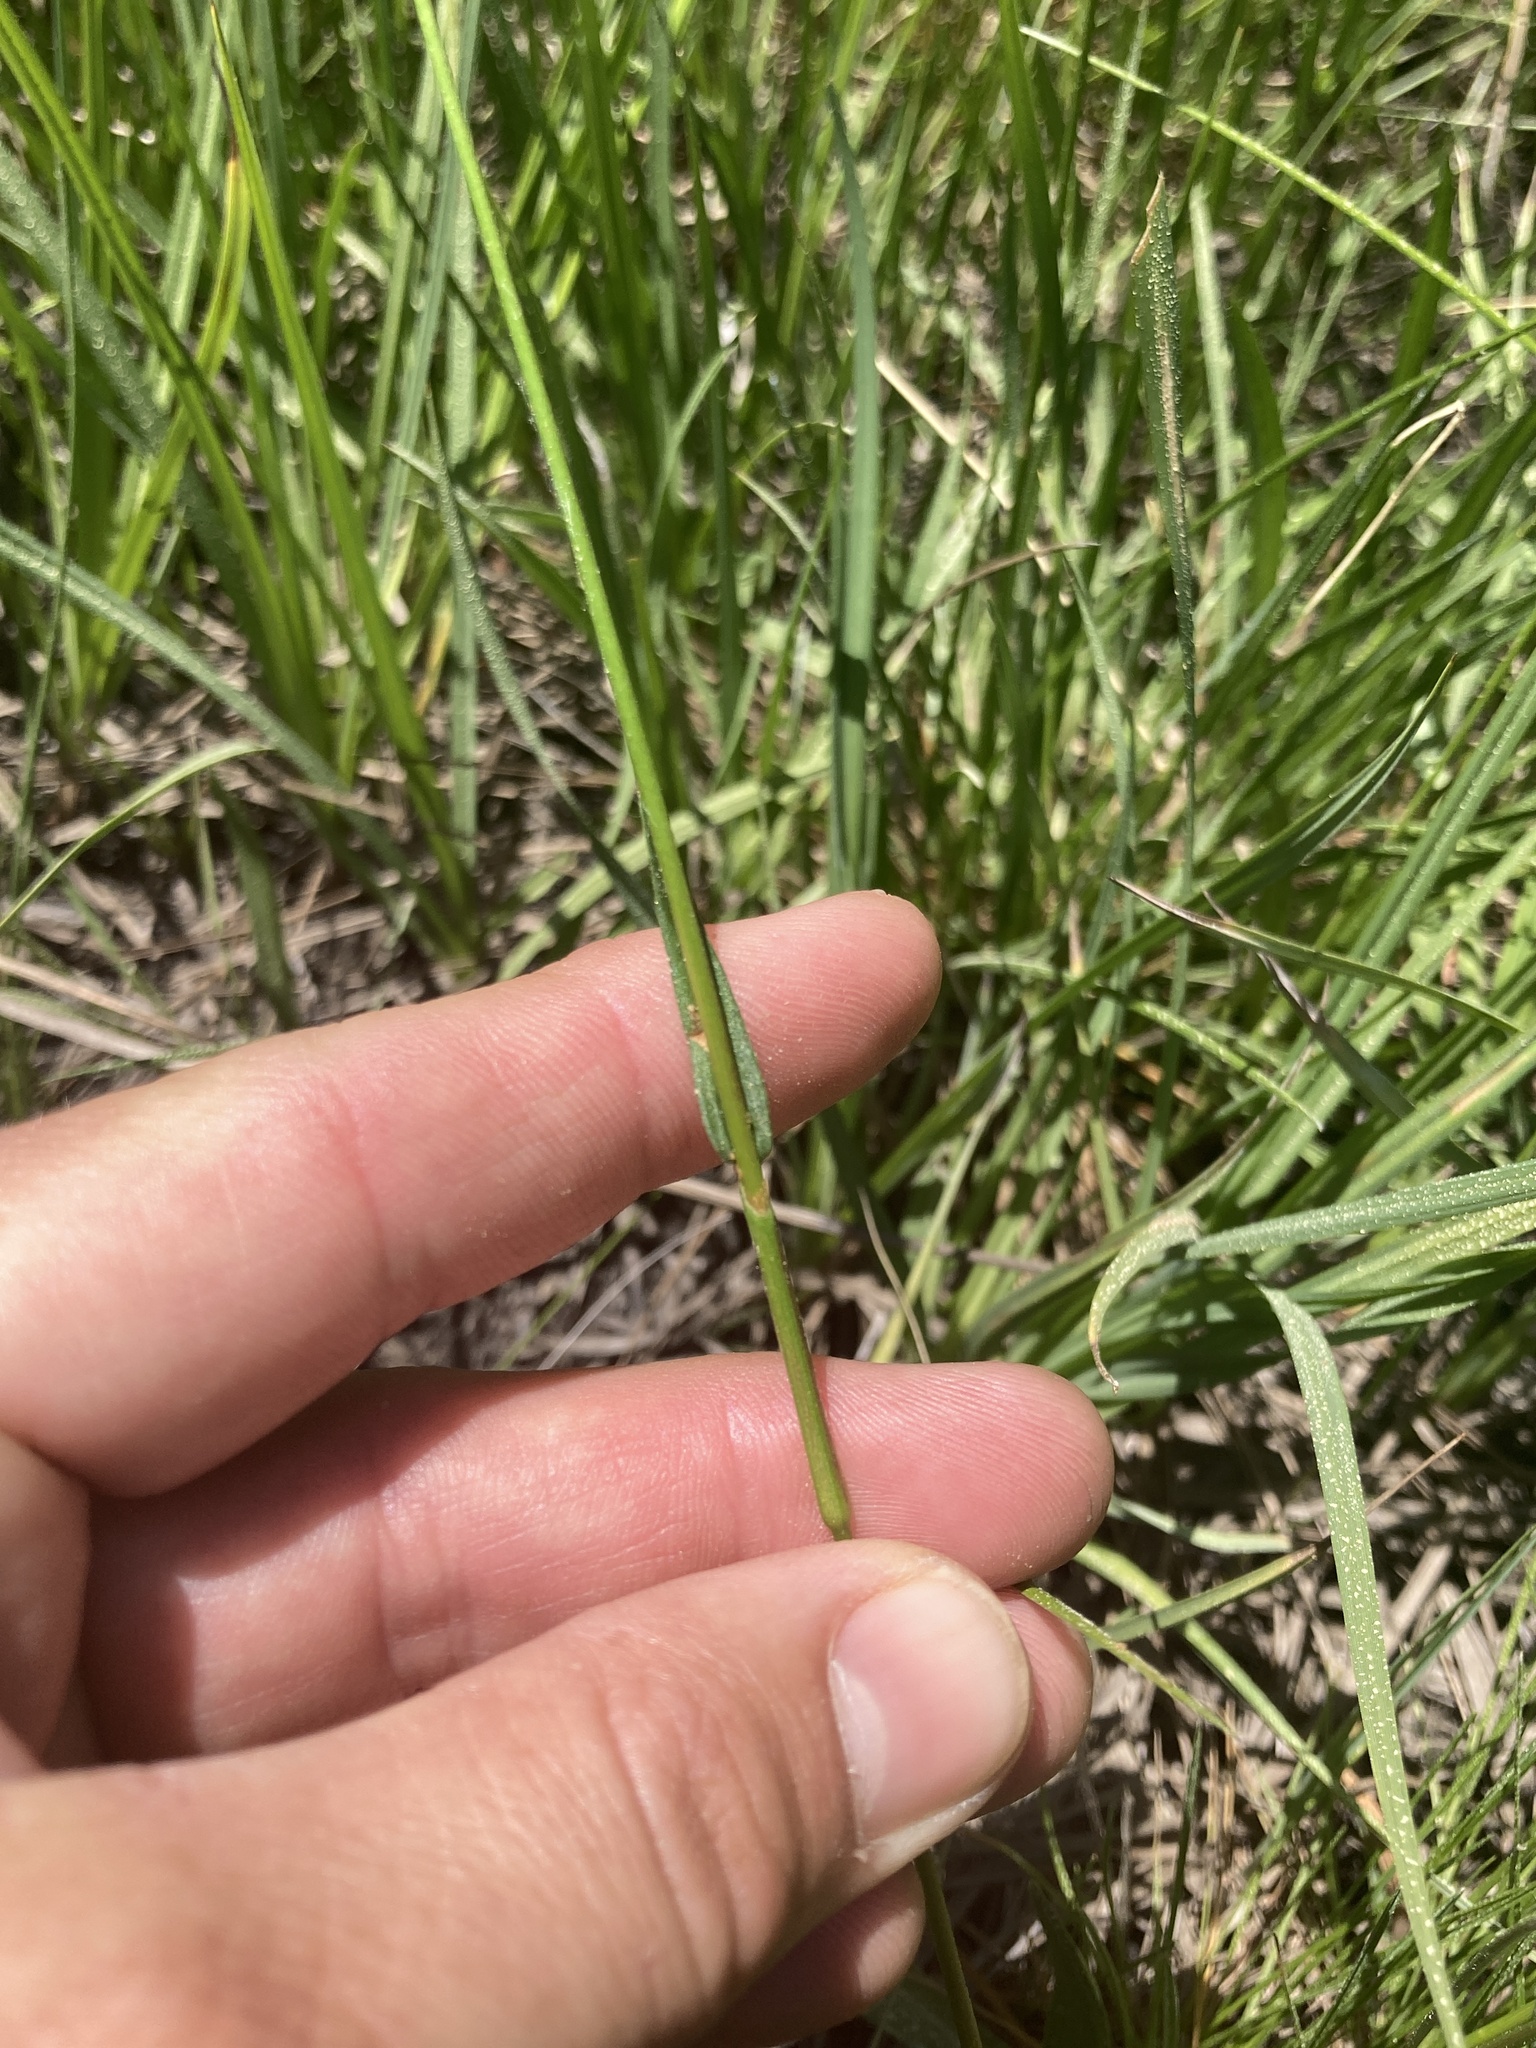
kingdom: Plantae
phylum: Tracheophyta
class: Magnoliopsida
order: Caryophyllales
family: Polygonaceae
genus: Bistorta
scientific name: Bistorta bistortoides
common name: American bistort
